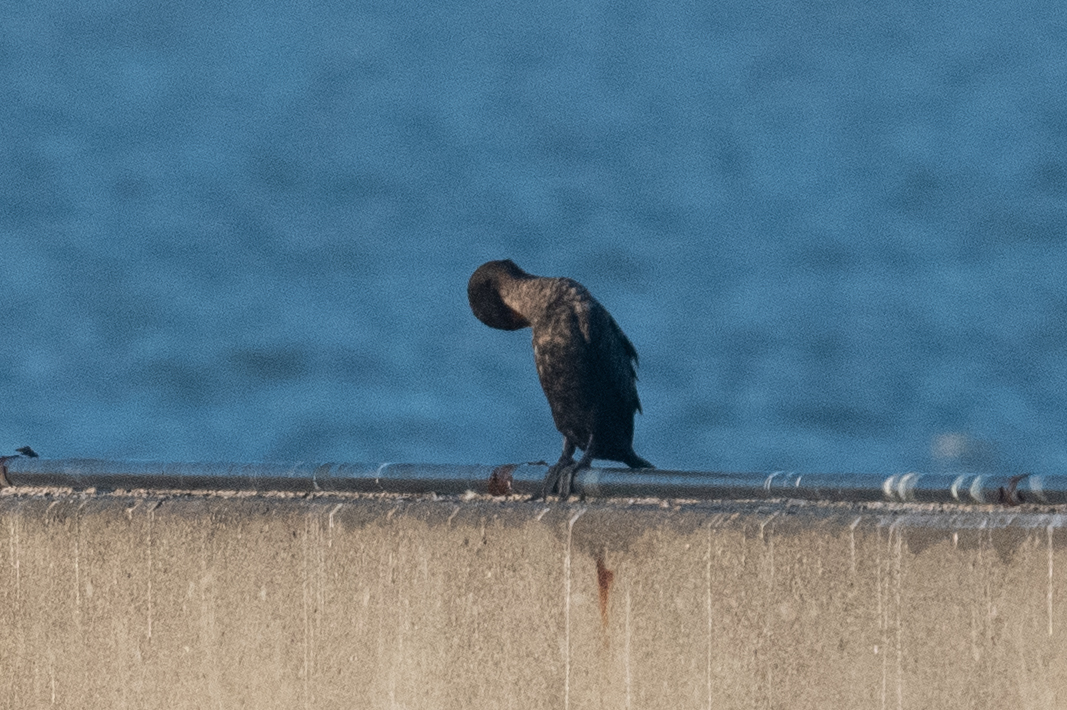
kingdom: Animalia
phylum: Chordata
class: Aves
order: Suliformes
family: Phalacrocoracidae
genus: Phalacrocorax
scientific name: Phalacrocorax auritus
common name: Double-crested cormorant
